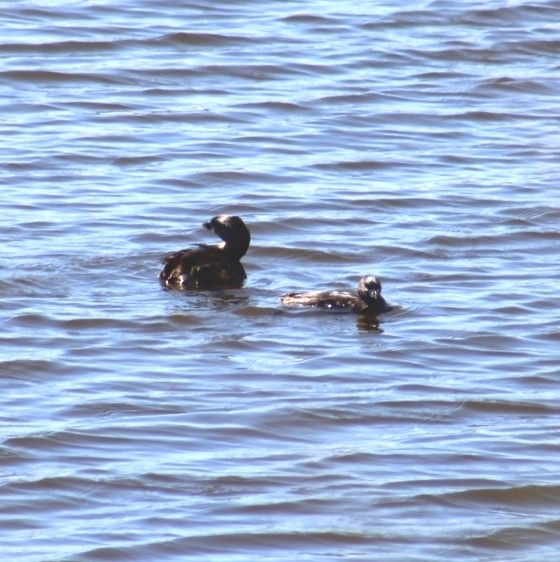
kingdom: Animalia
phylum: Chordata
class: Aves
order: Podicipediformes
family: Podicipedidae
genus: Podilymbus
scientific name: Podilymbus podiceps
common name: Pied-billed grebe
